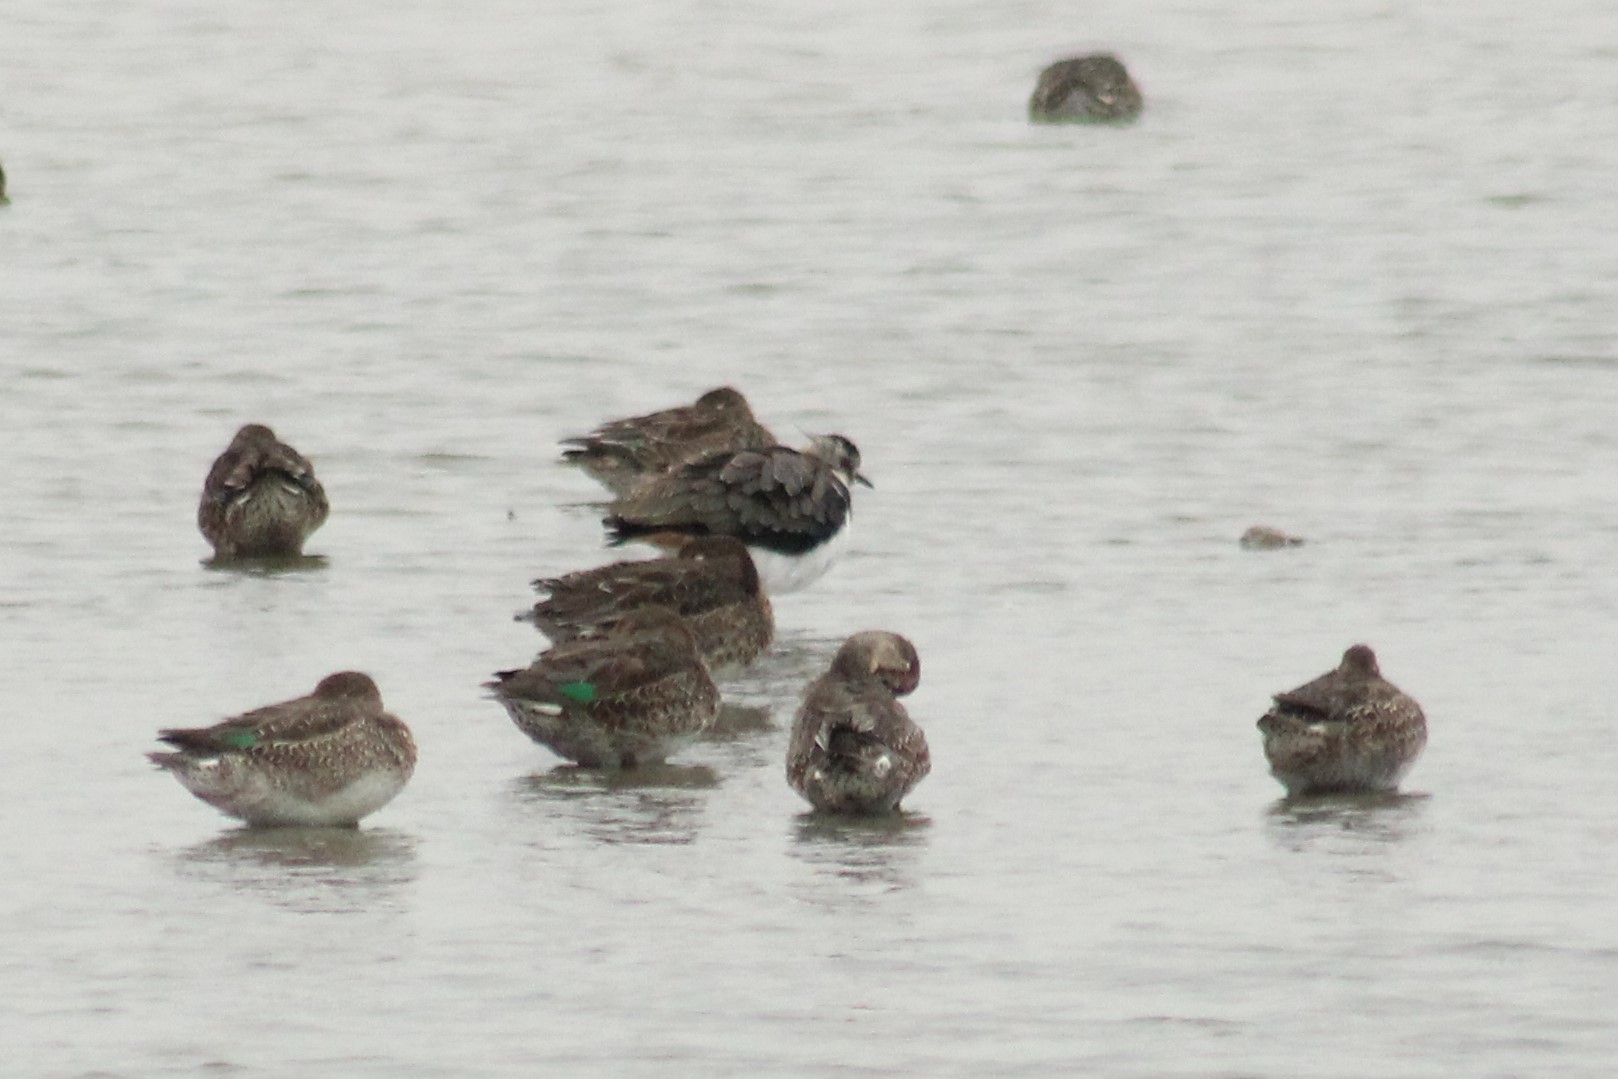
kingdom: Animalia
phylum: Chordata
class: Aves
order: Charadriiformes
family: Charadriidae
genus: Vanellus
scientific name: Vanellus vanellus
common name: Northern lapwing
